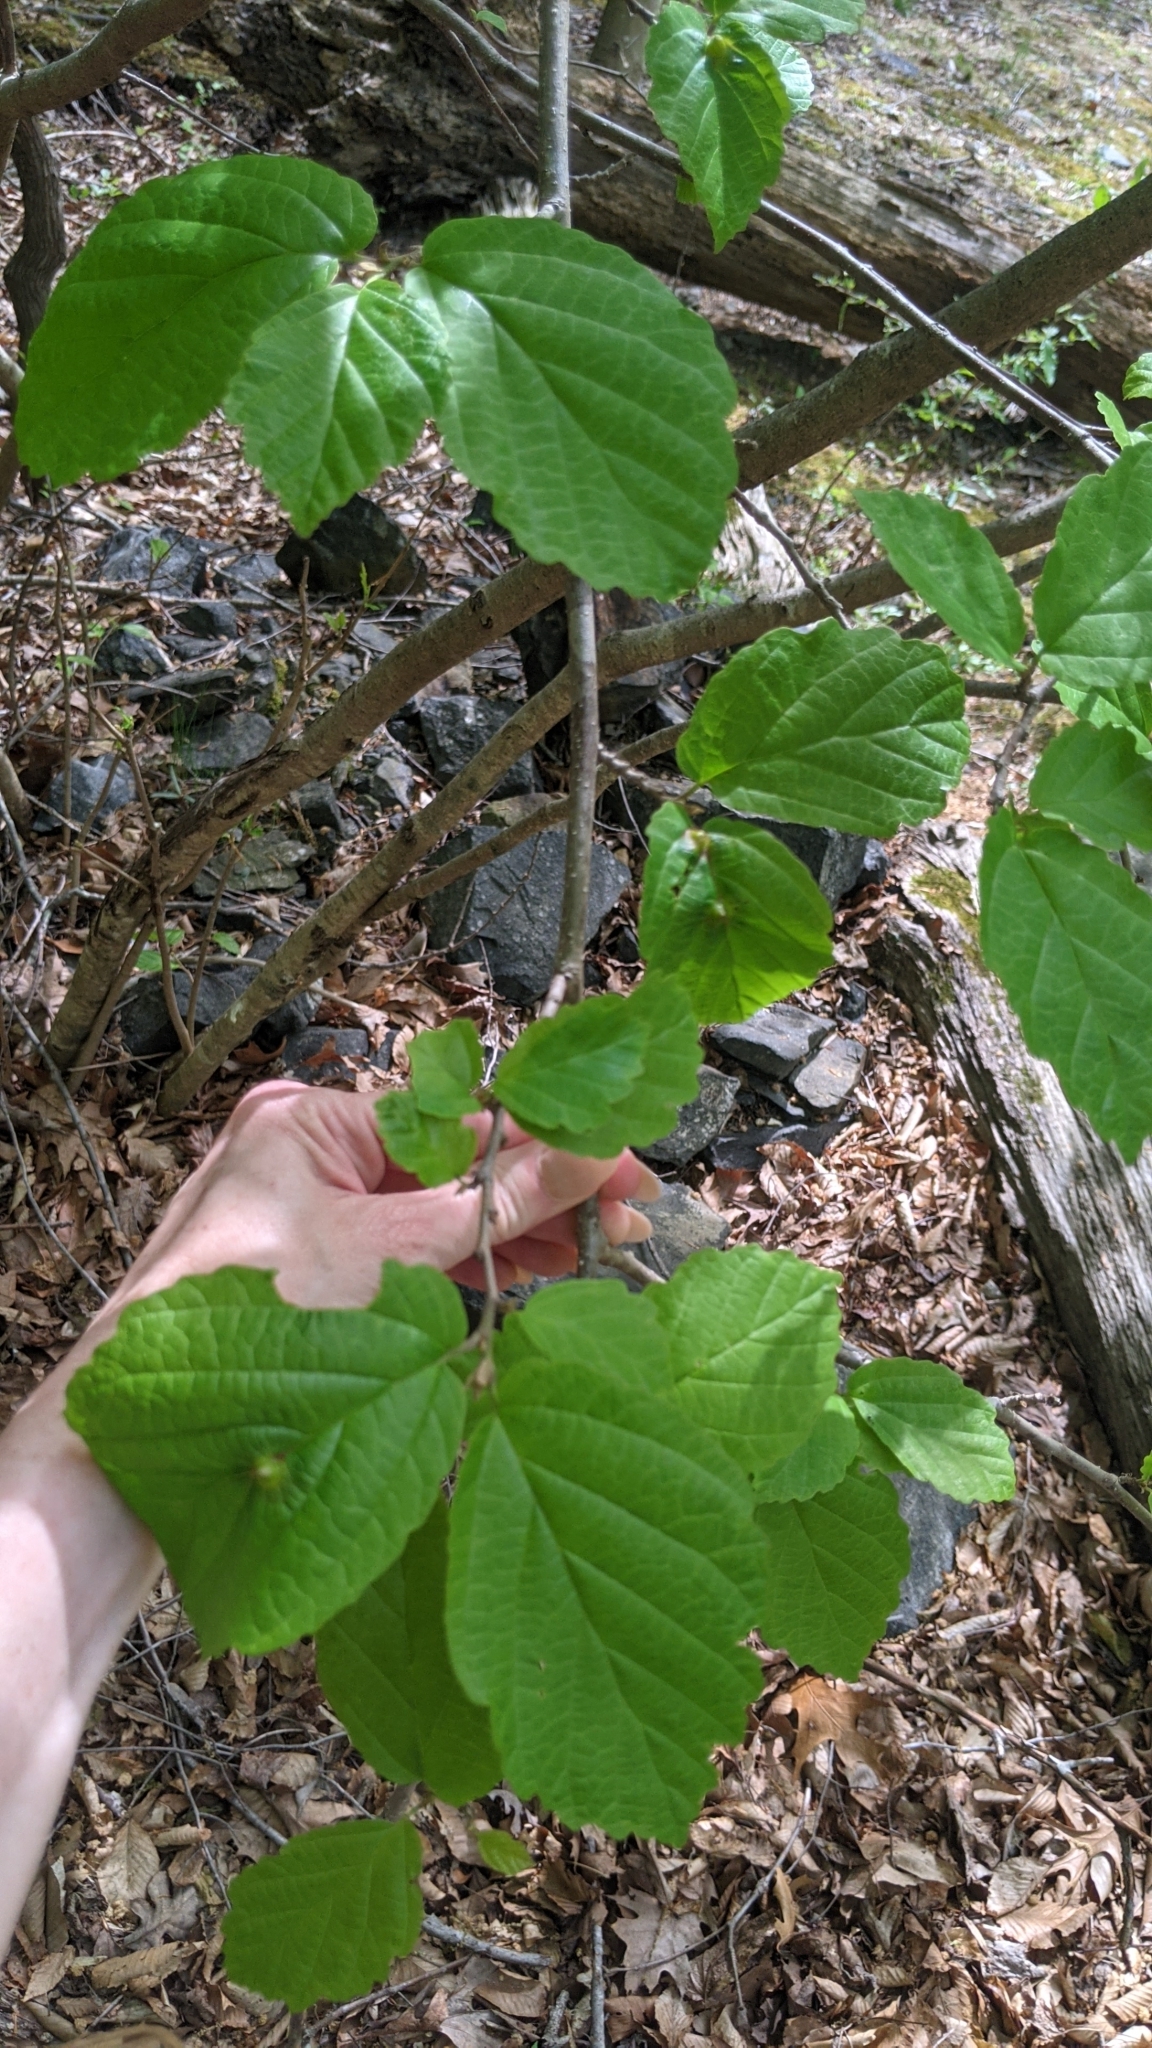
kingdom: Plantae
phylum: Tracheophyta
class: Magnoliopsida
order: Saxifragales
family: Hamamelidaceae
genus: Hamamelis
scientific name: Hamamelis virginiana
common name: Witch-hazel
